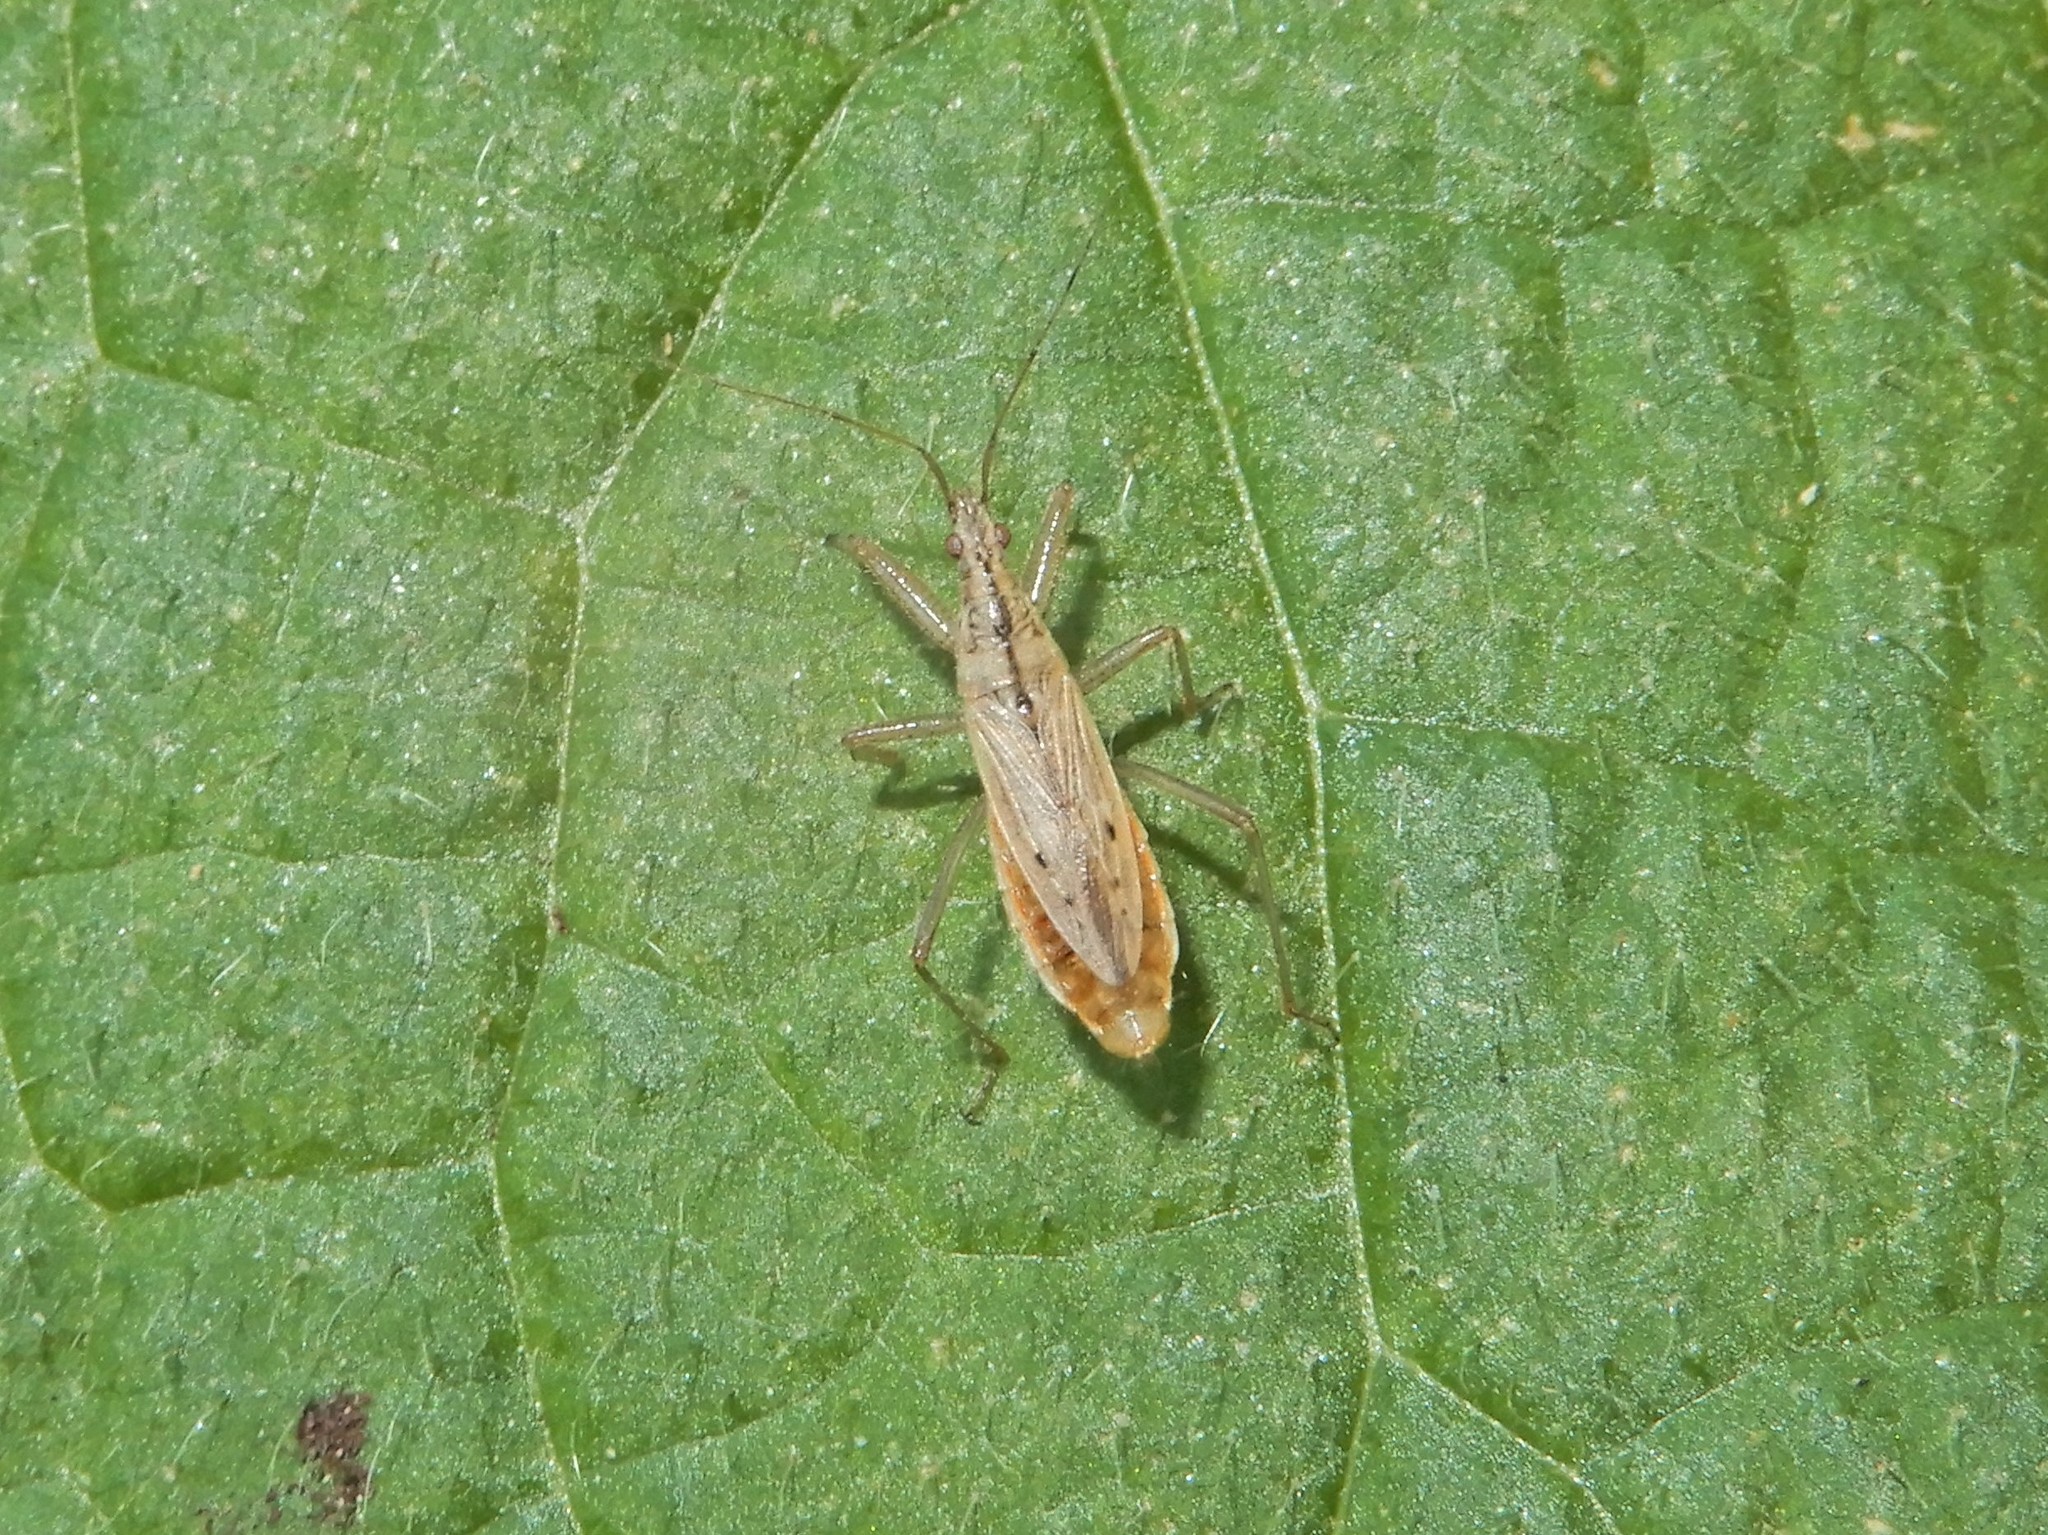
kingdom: Animalia
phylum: Arthropoda
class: Insecta
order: Hemiptera
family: Nabidae
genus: Nabis
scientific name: Nabis
